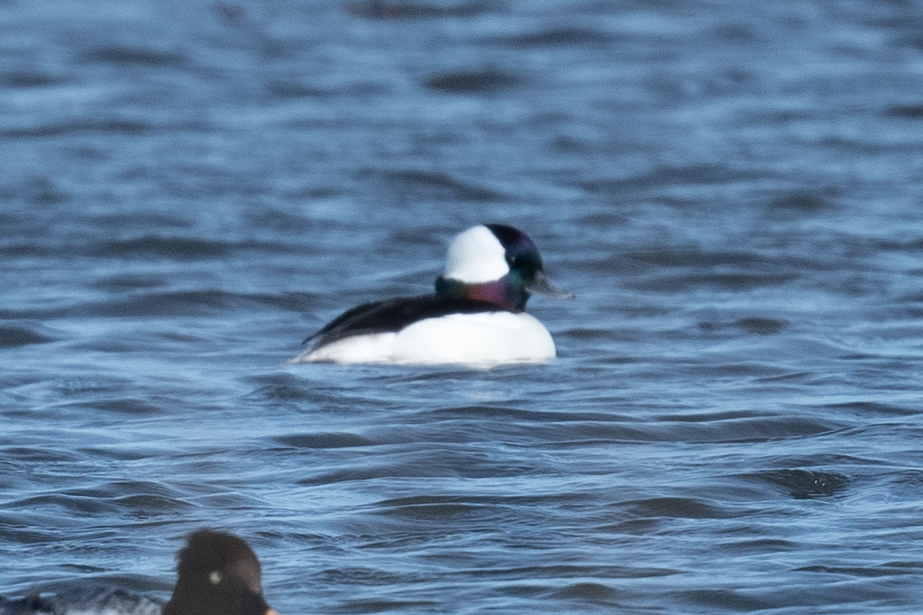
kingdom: Animalia
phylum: Chordata
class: Aves
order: Anseriformes
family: Anatidae
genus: Bucephala
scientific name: Bucephala albeola
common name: Bufflehead
